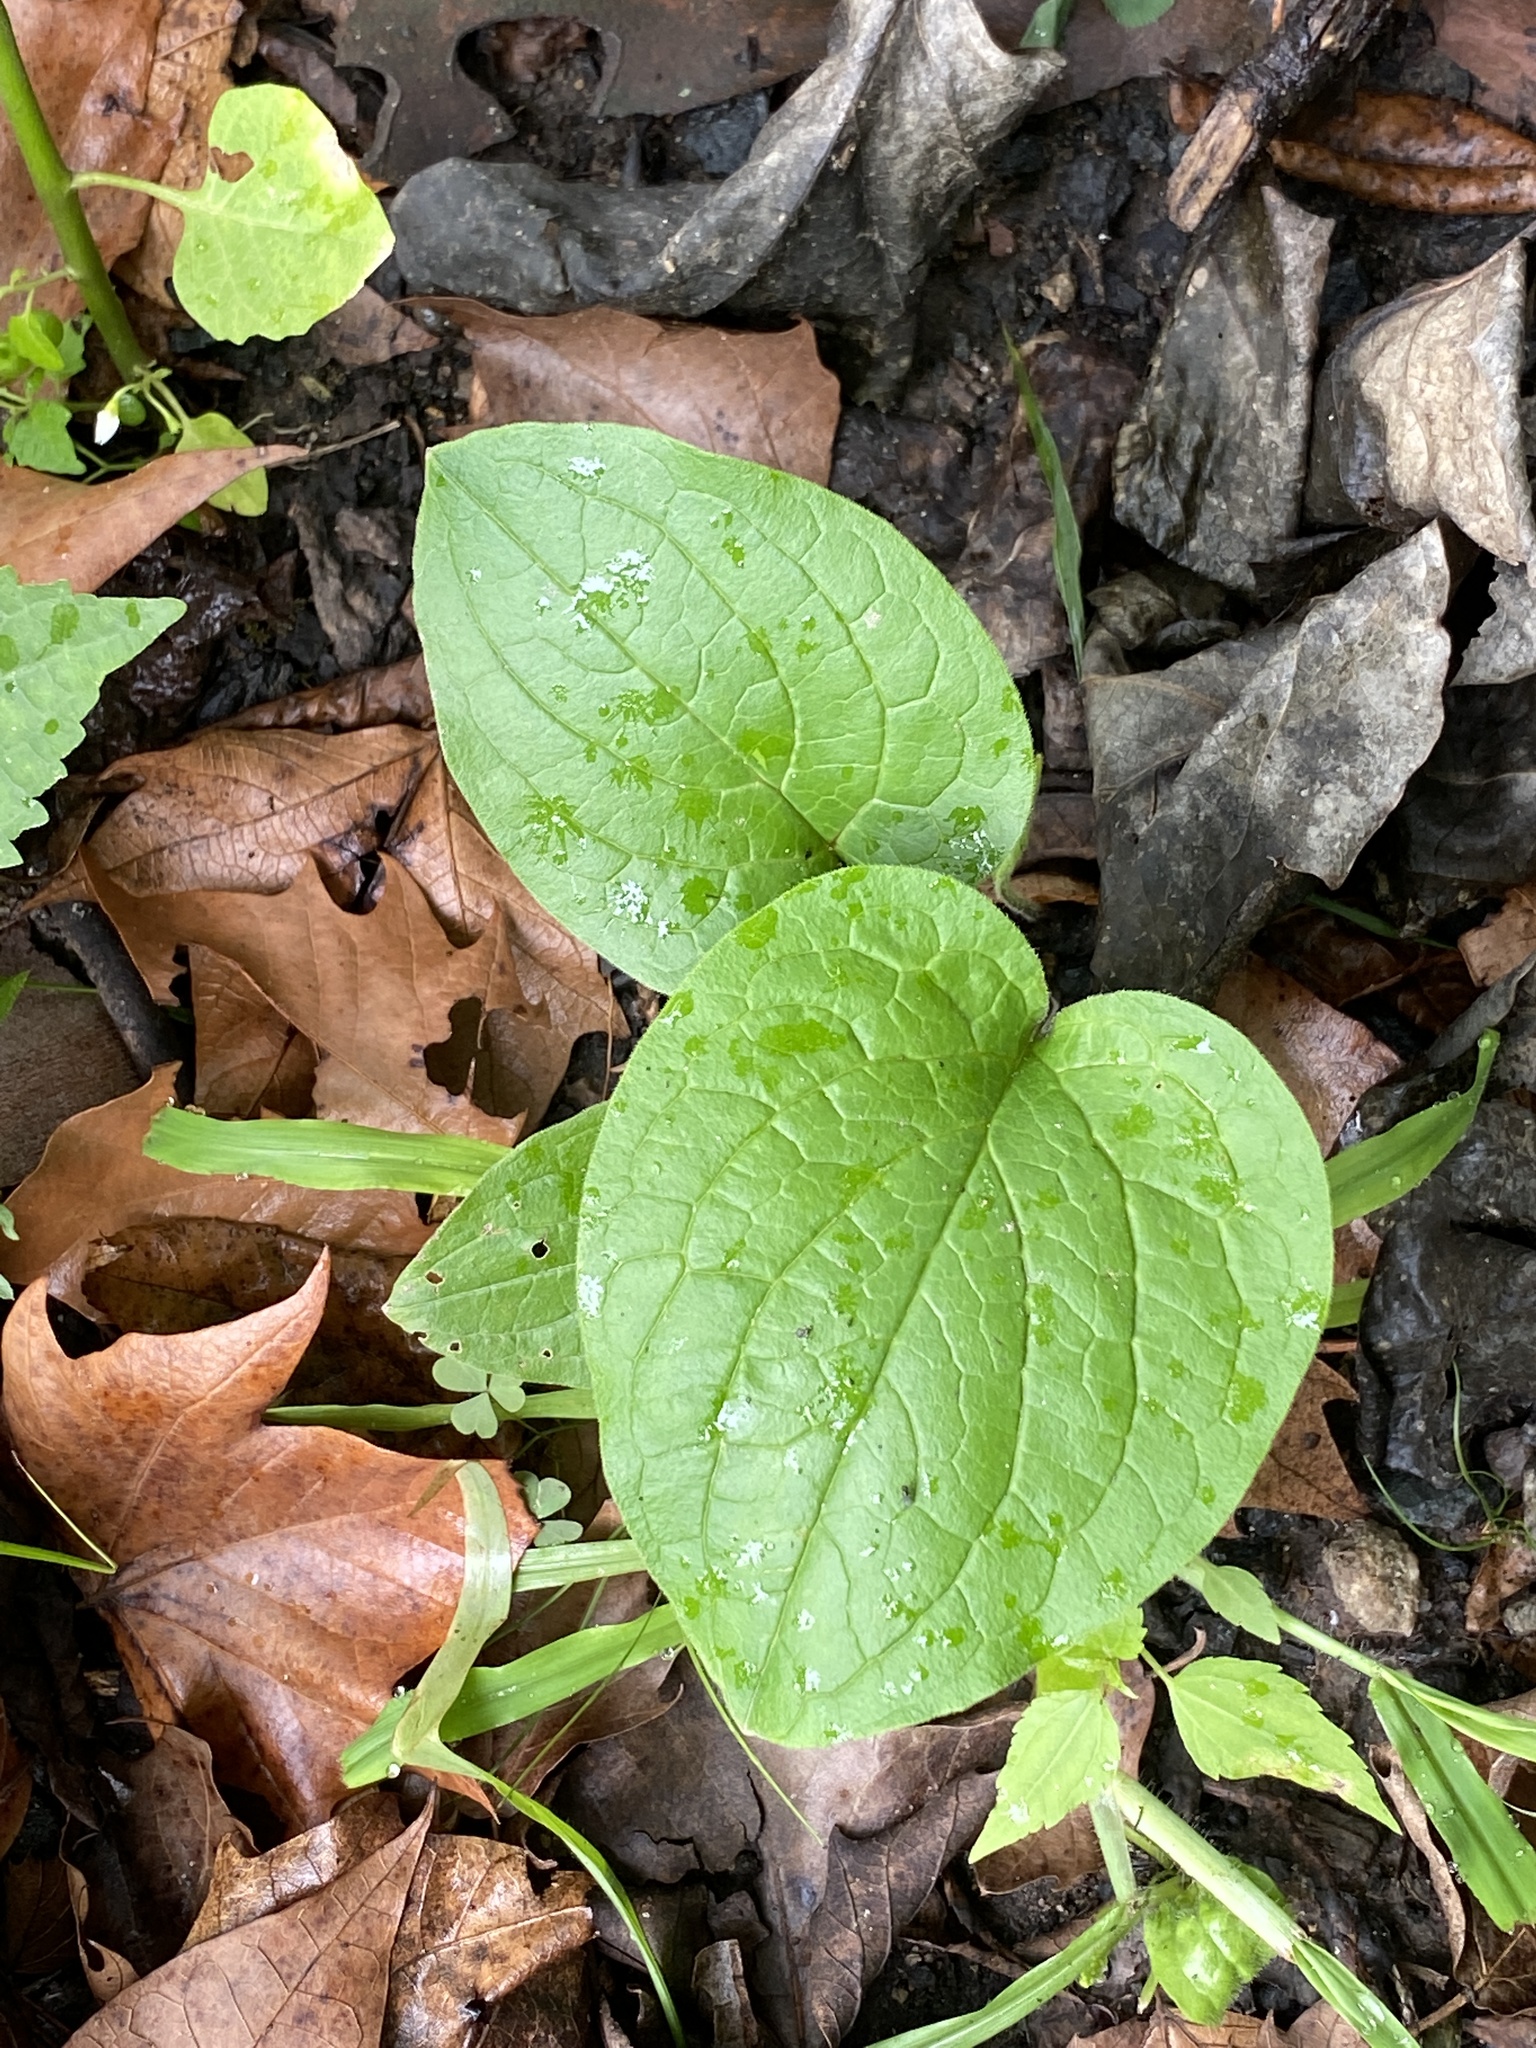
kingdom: Plantae
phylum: Tracheophyta
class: Magnoliopsida
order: Boraginales
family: Boraginaceae
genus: Hackelia
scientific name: Hackelia virginiana
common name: Beggar's-lice
